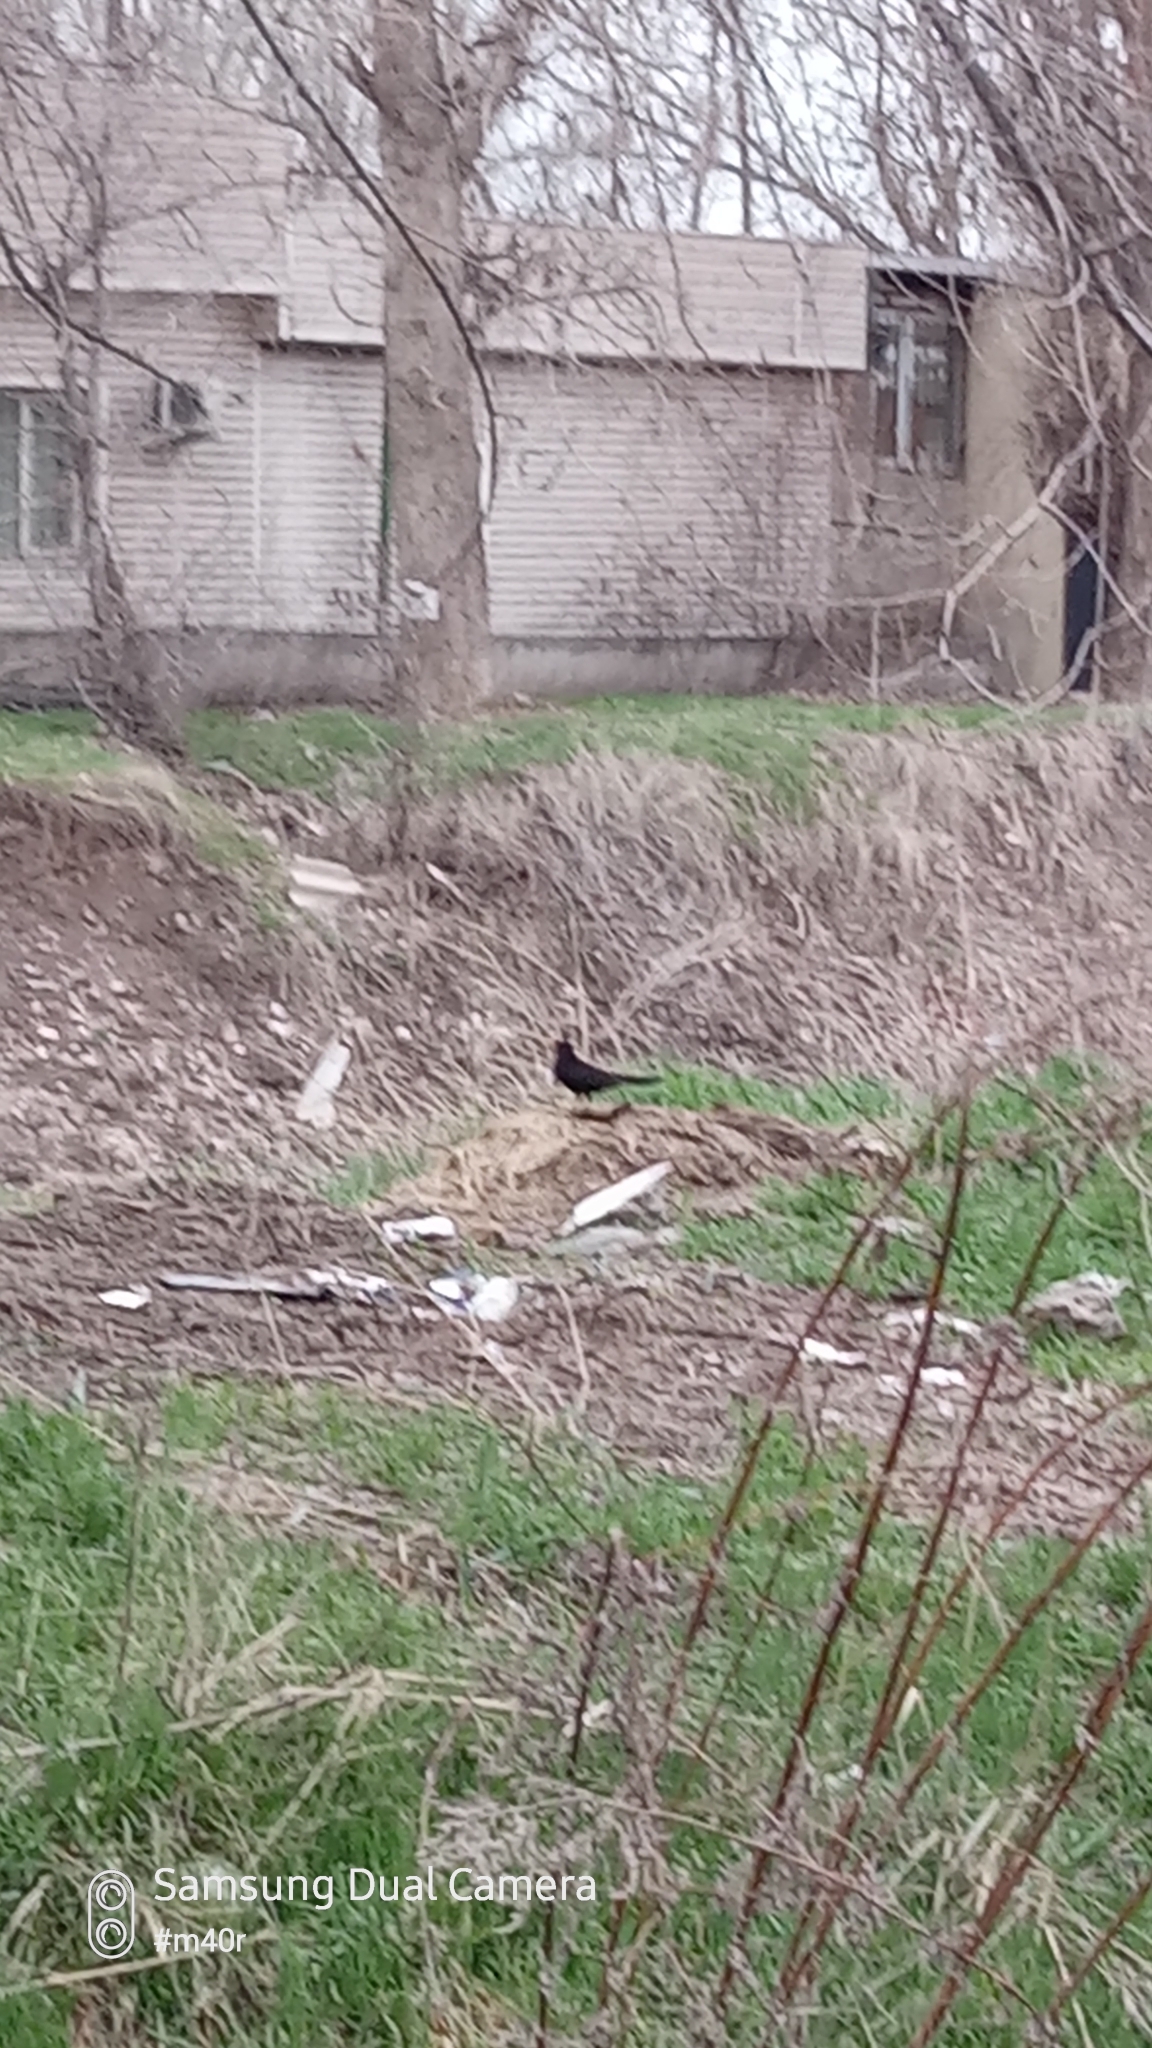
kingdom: Animalia
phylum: Chordata
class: Aves
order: Passeriformes
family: Turdidae
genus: Turdus
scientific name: Turdus merula
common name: Common blackbird
